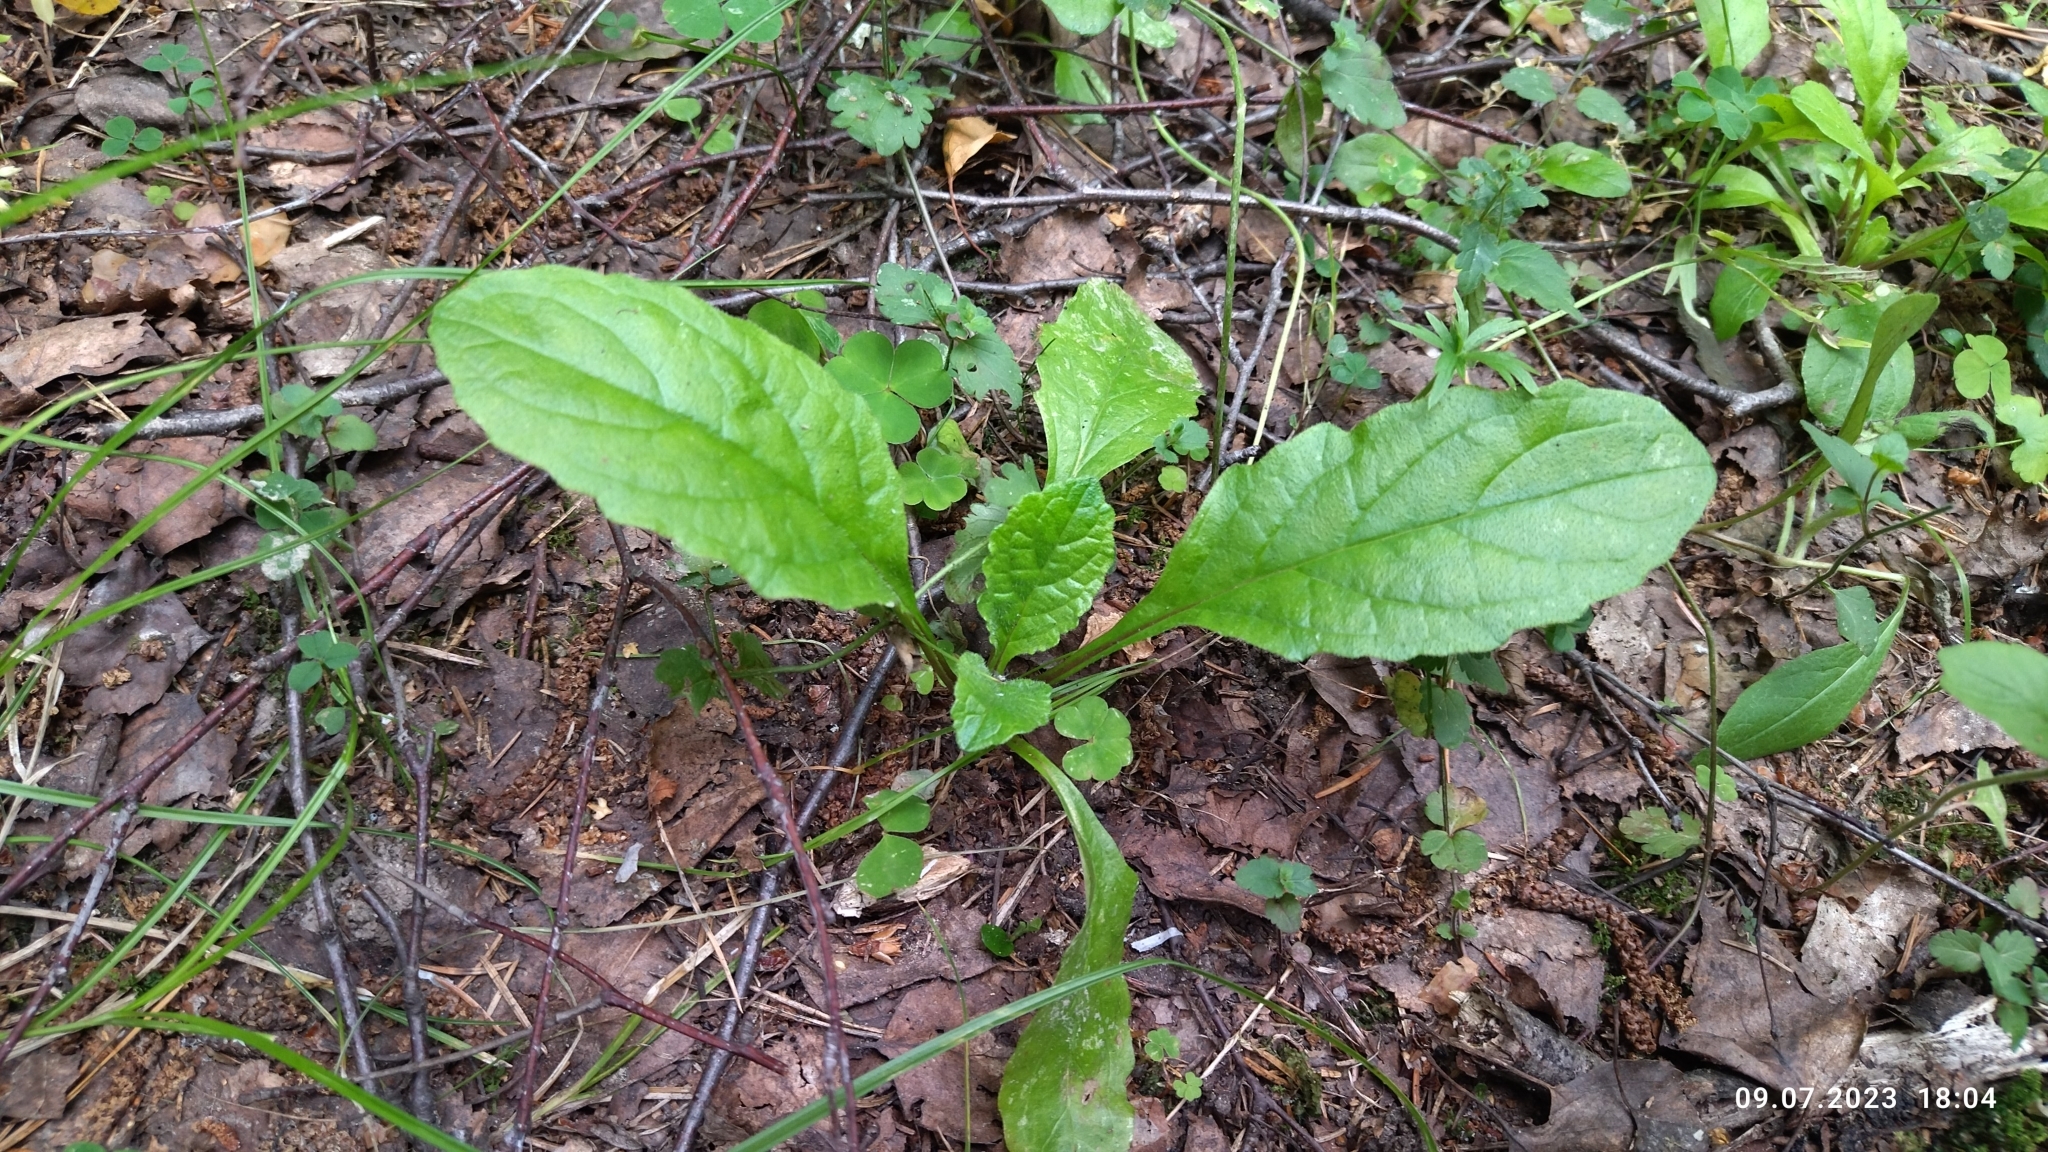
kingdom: Plantae
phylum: Tracheophyta
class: Magnoliopsida
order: Lamiales
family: Lamiaceae
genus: Ajuga
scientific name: Ajuga reptans
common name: Bugle
